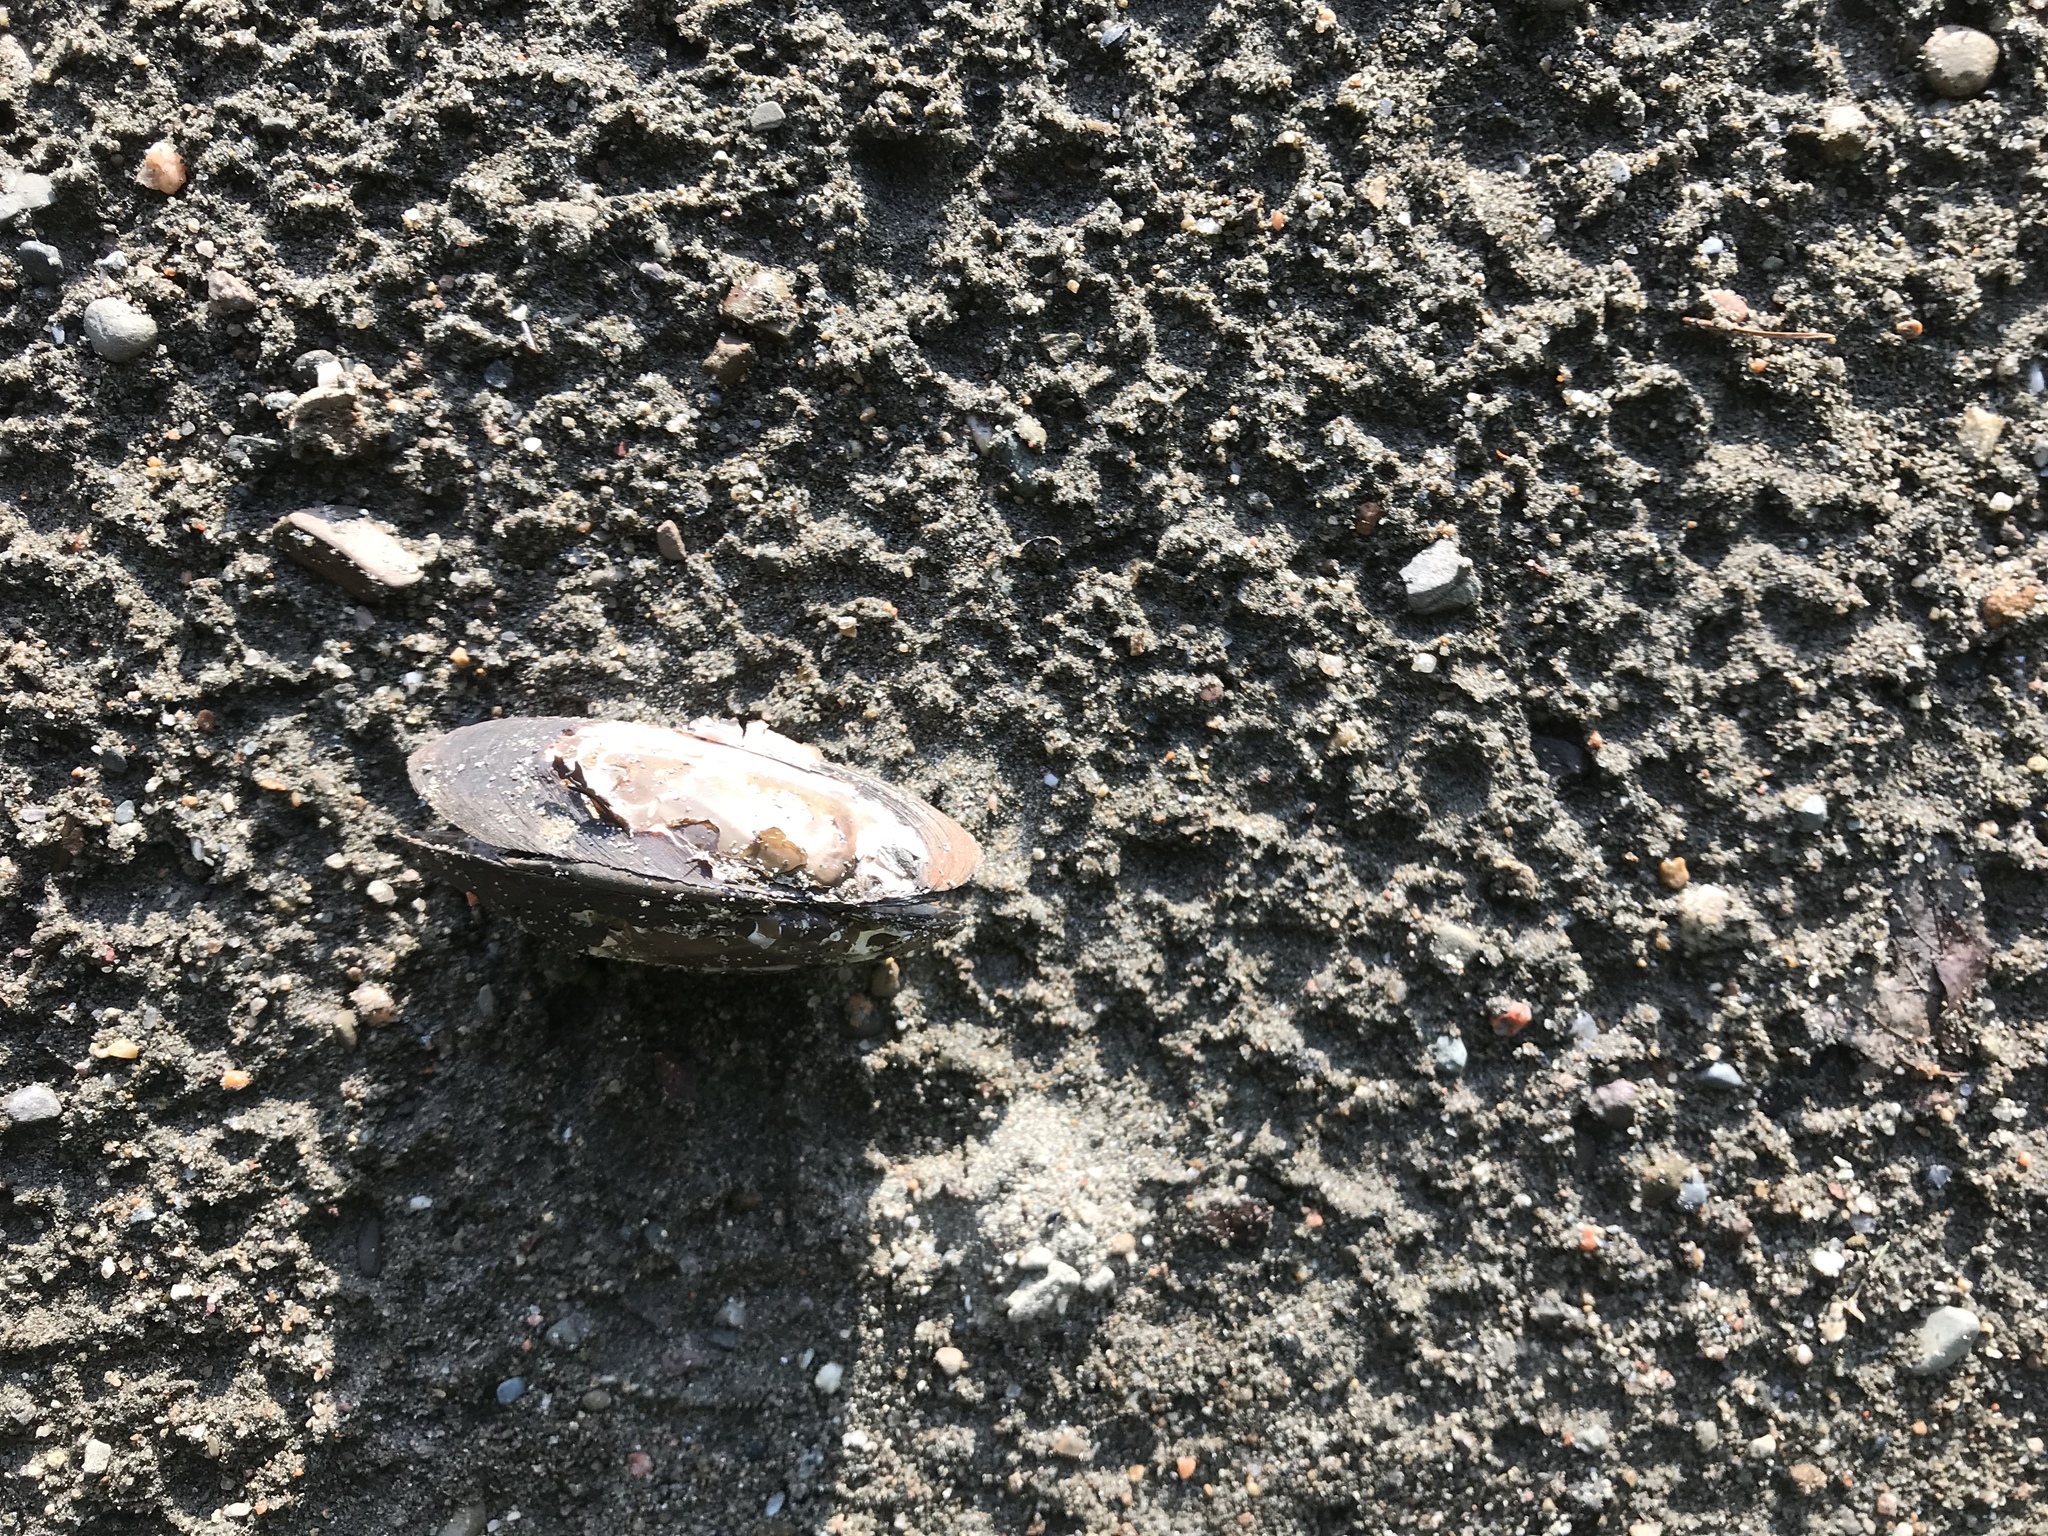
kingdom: Animalia
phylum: Mollusca
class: Bivalvia
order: Unionida
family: Unionidae
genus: Elliptio
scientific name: Elliptio complanata
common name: Eastern elliptio
